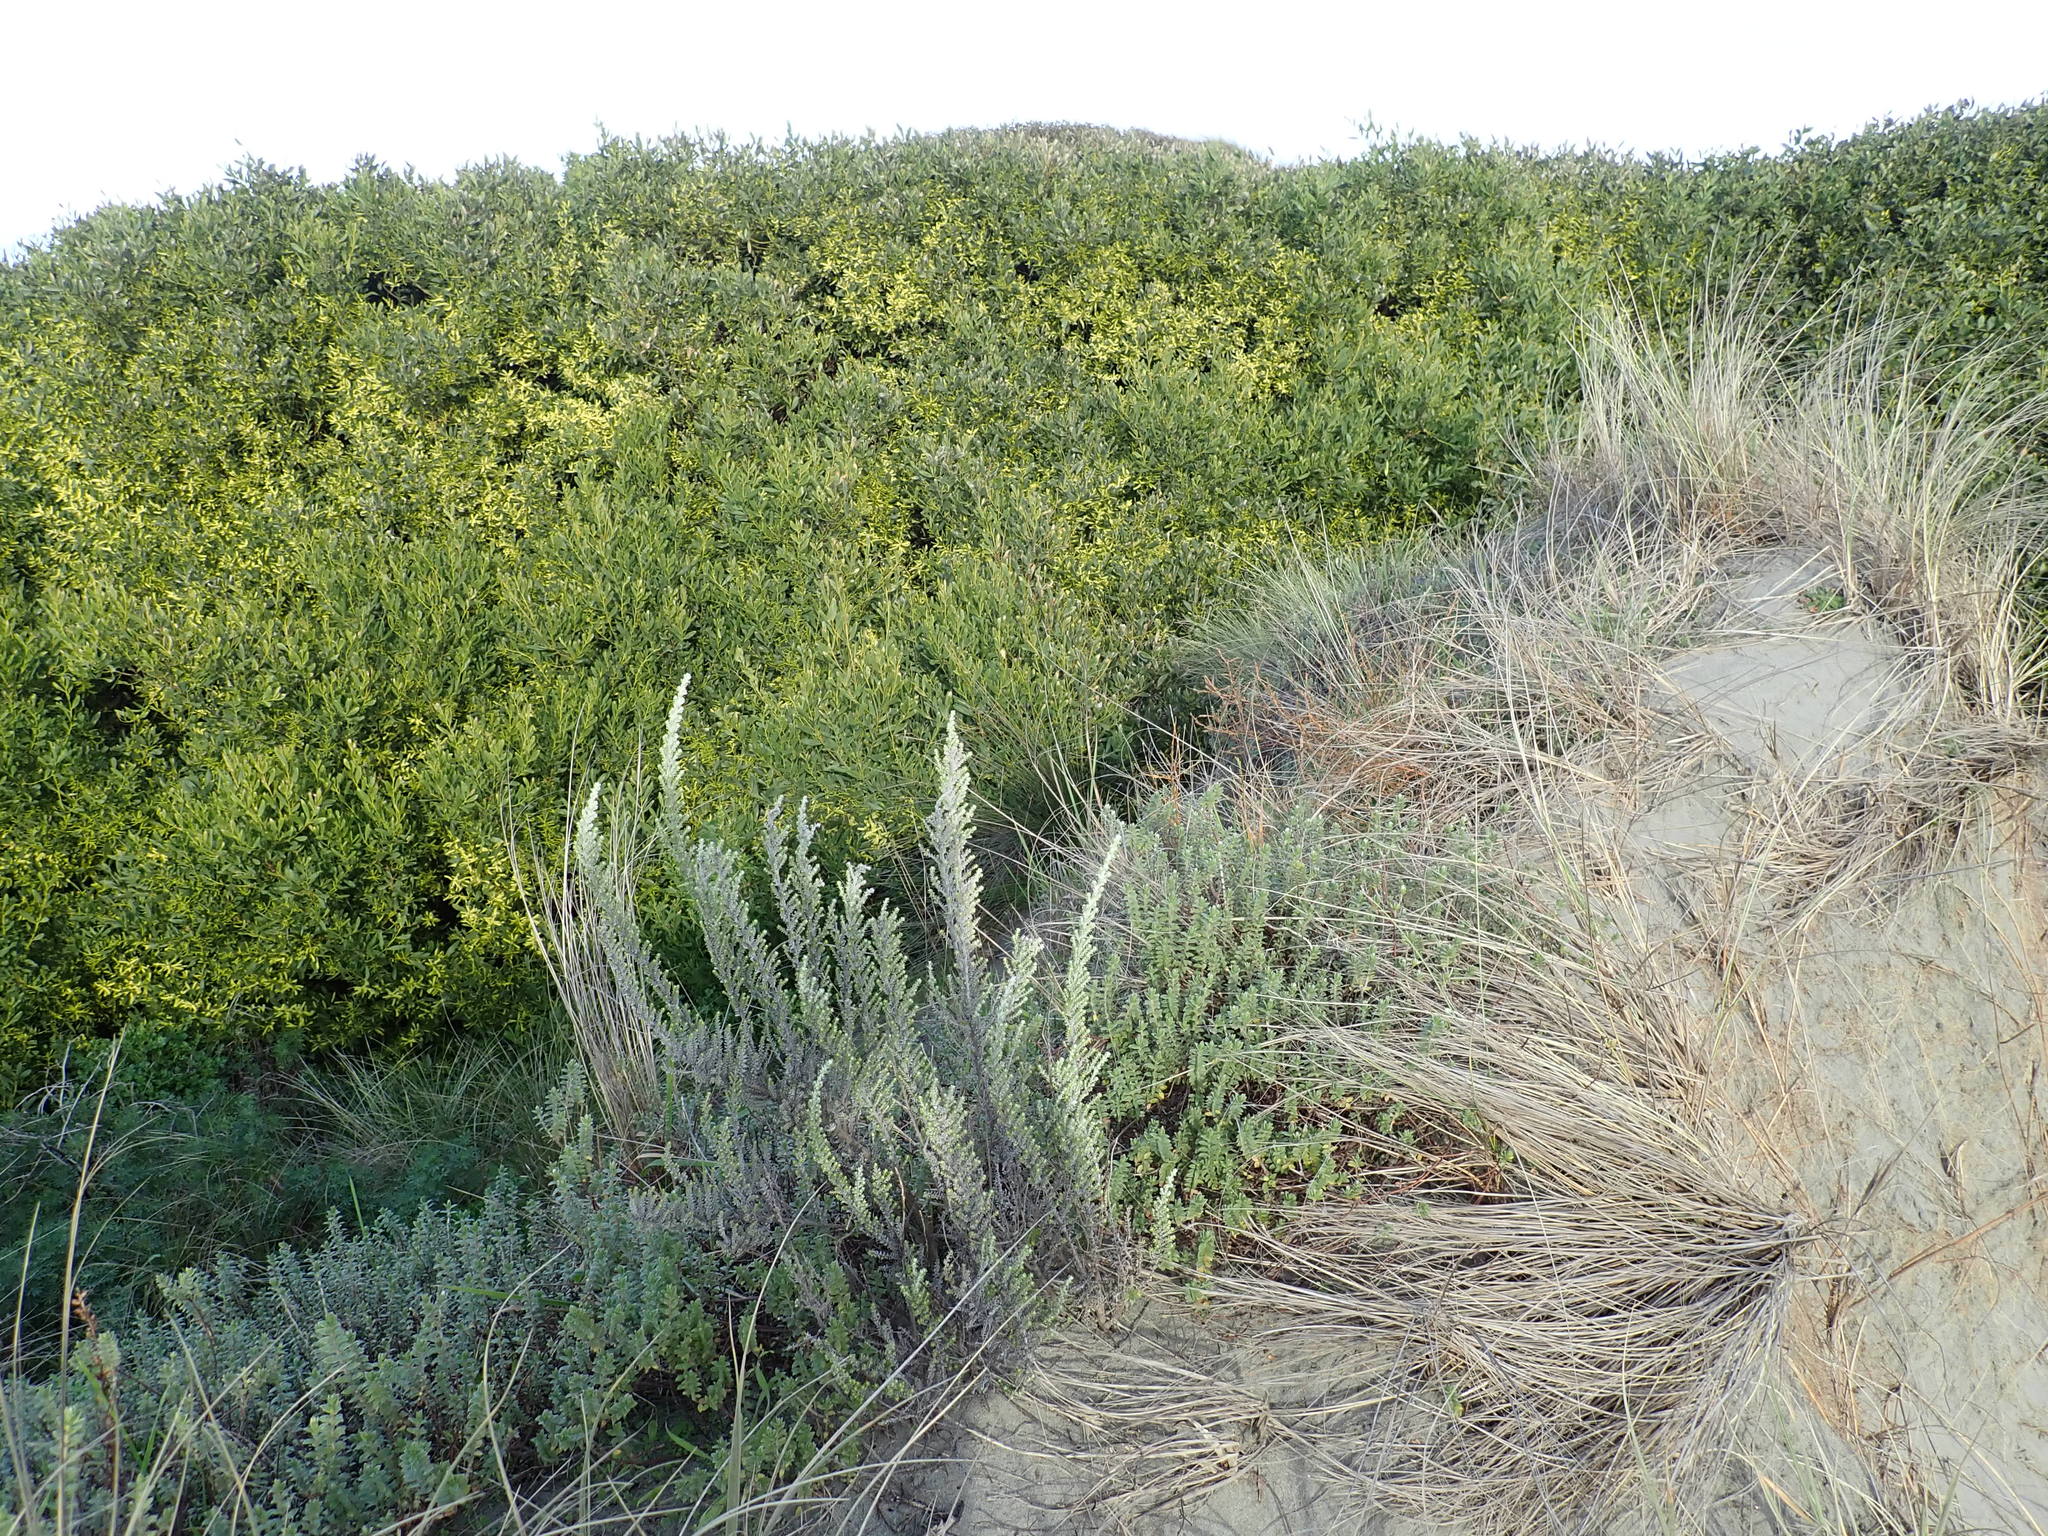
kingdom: Plantae
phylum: Tracheophyta
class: Magnoliopsida
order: Fabales
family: Fabaceae
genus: Acacia
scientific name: Acacia longifolia
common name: Sydney golden wattle
